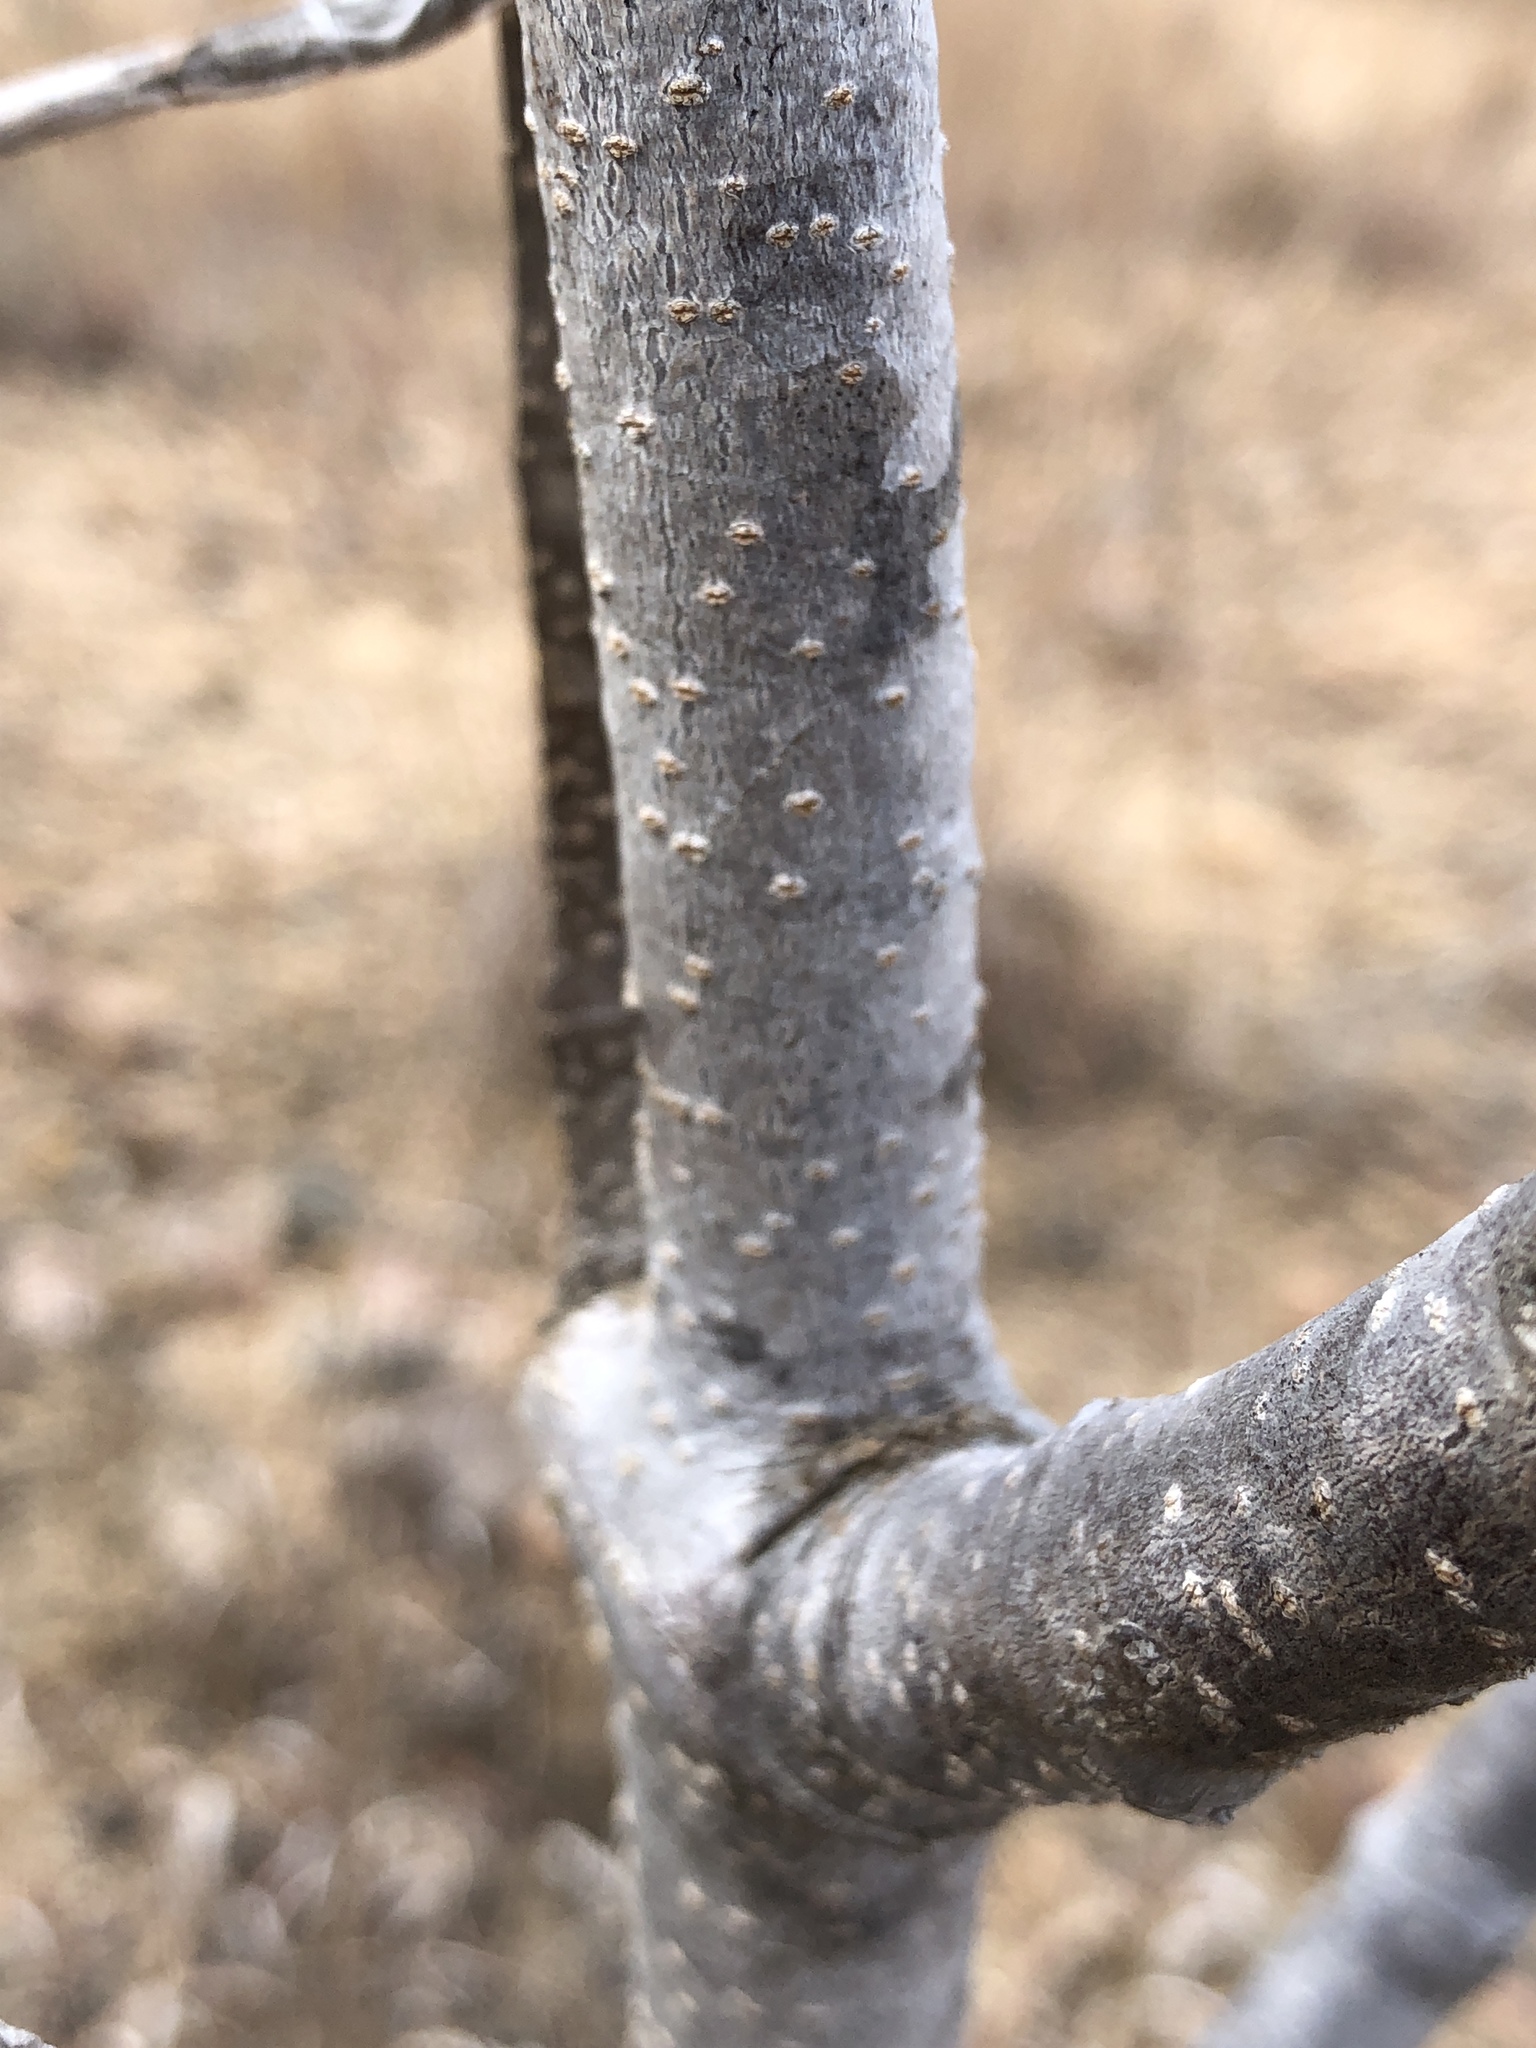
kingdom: Plantae
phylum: Tracheophyta
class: Magnoliopsida
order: Gentianales
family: Apocynaceae
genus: Cryptostegia
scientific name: Cryptostegia grandiflora
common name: Palay rubbervine
